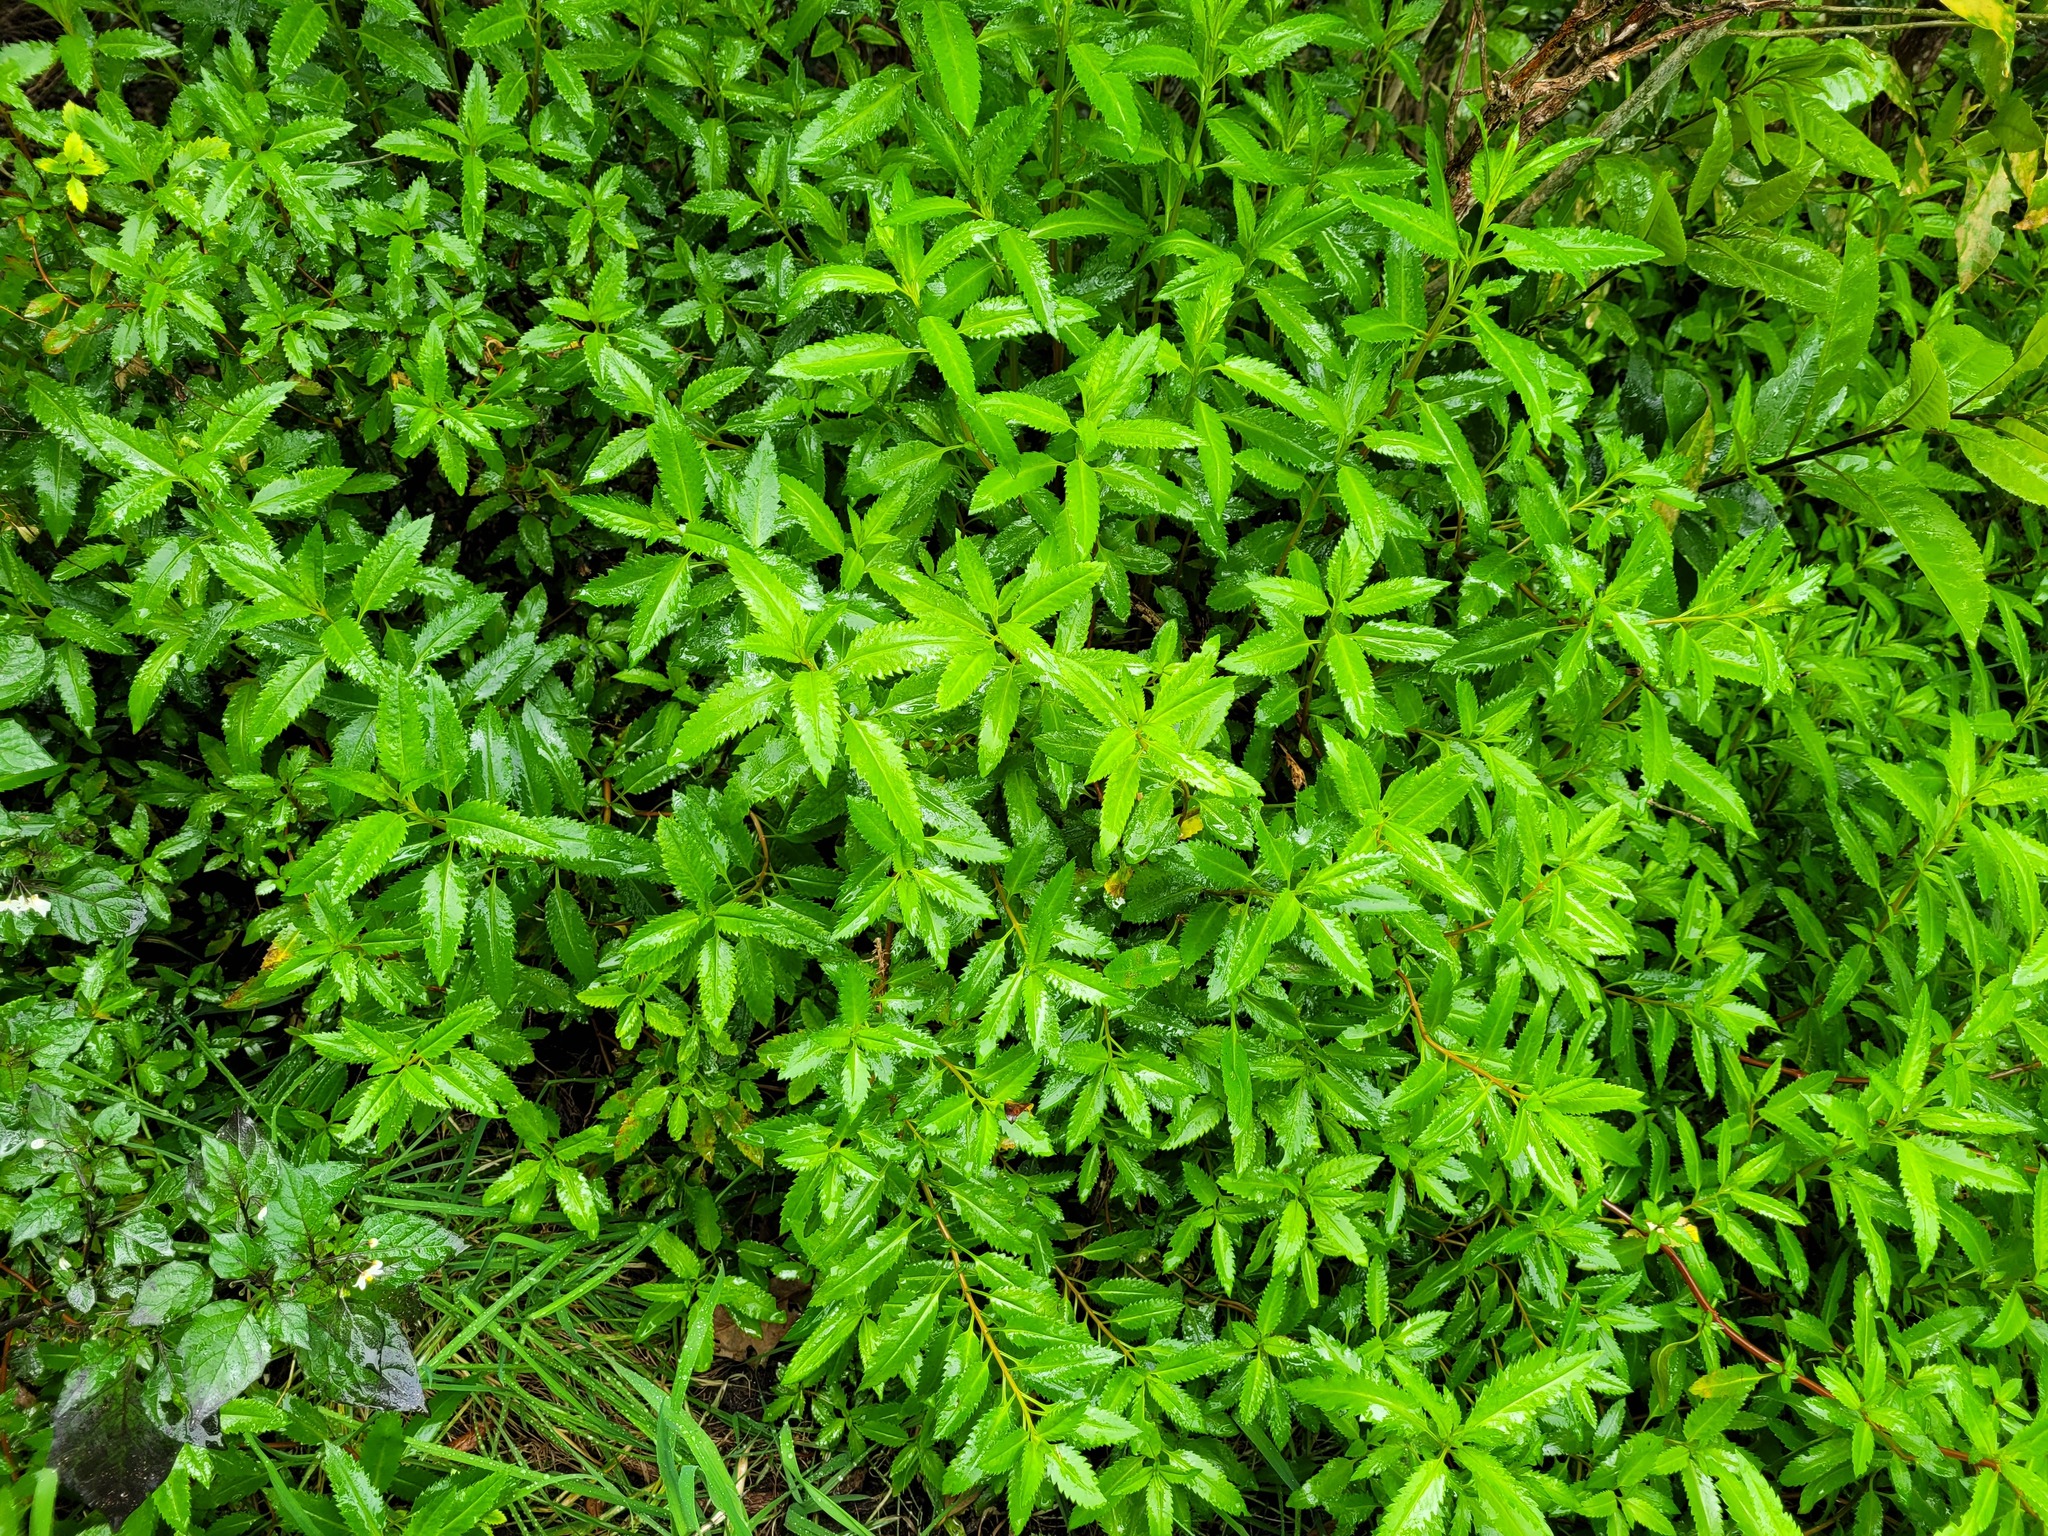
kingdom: Plantae
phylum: Tracheophyta
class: Magnoliopsida
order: Saxifragales
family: Haloragaceae
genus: Haloragis
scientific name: Haloragis erecta
